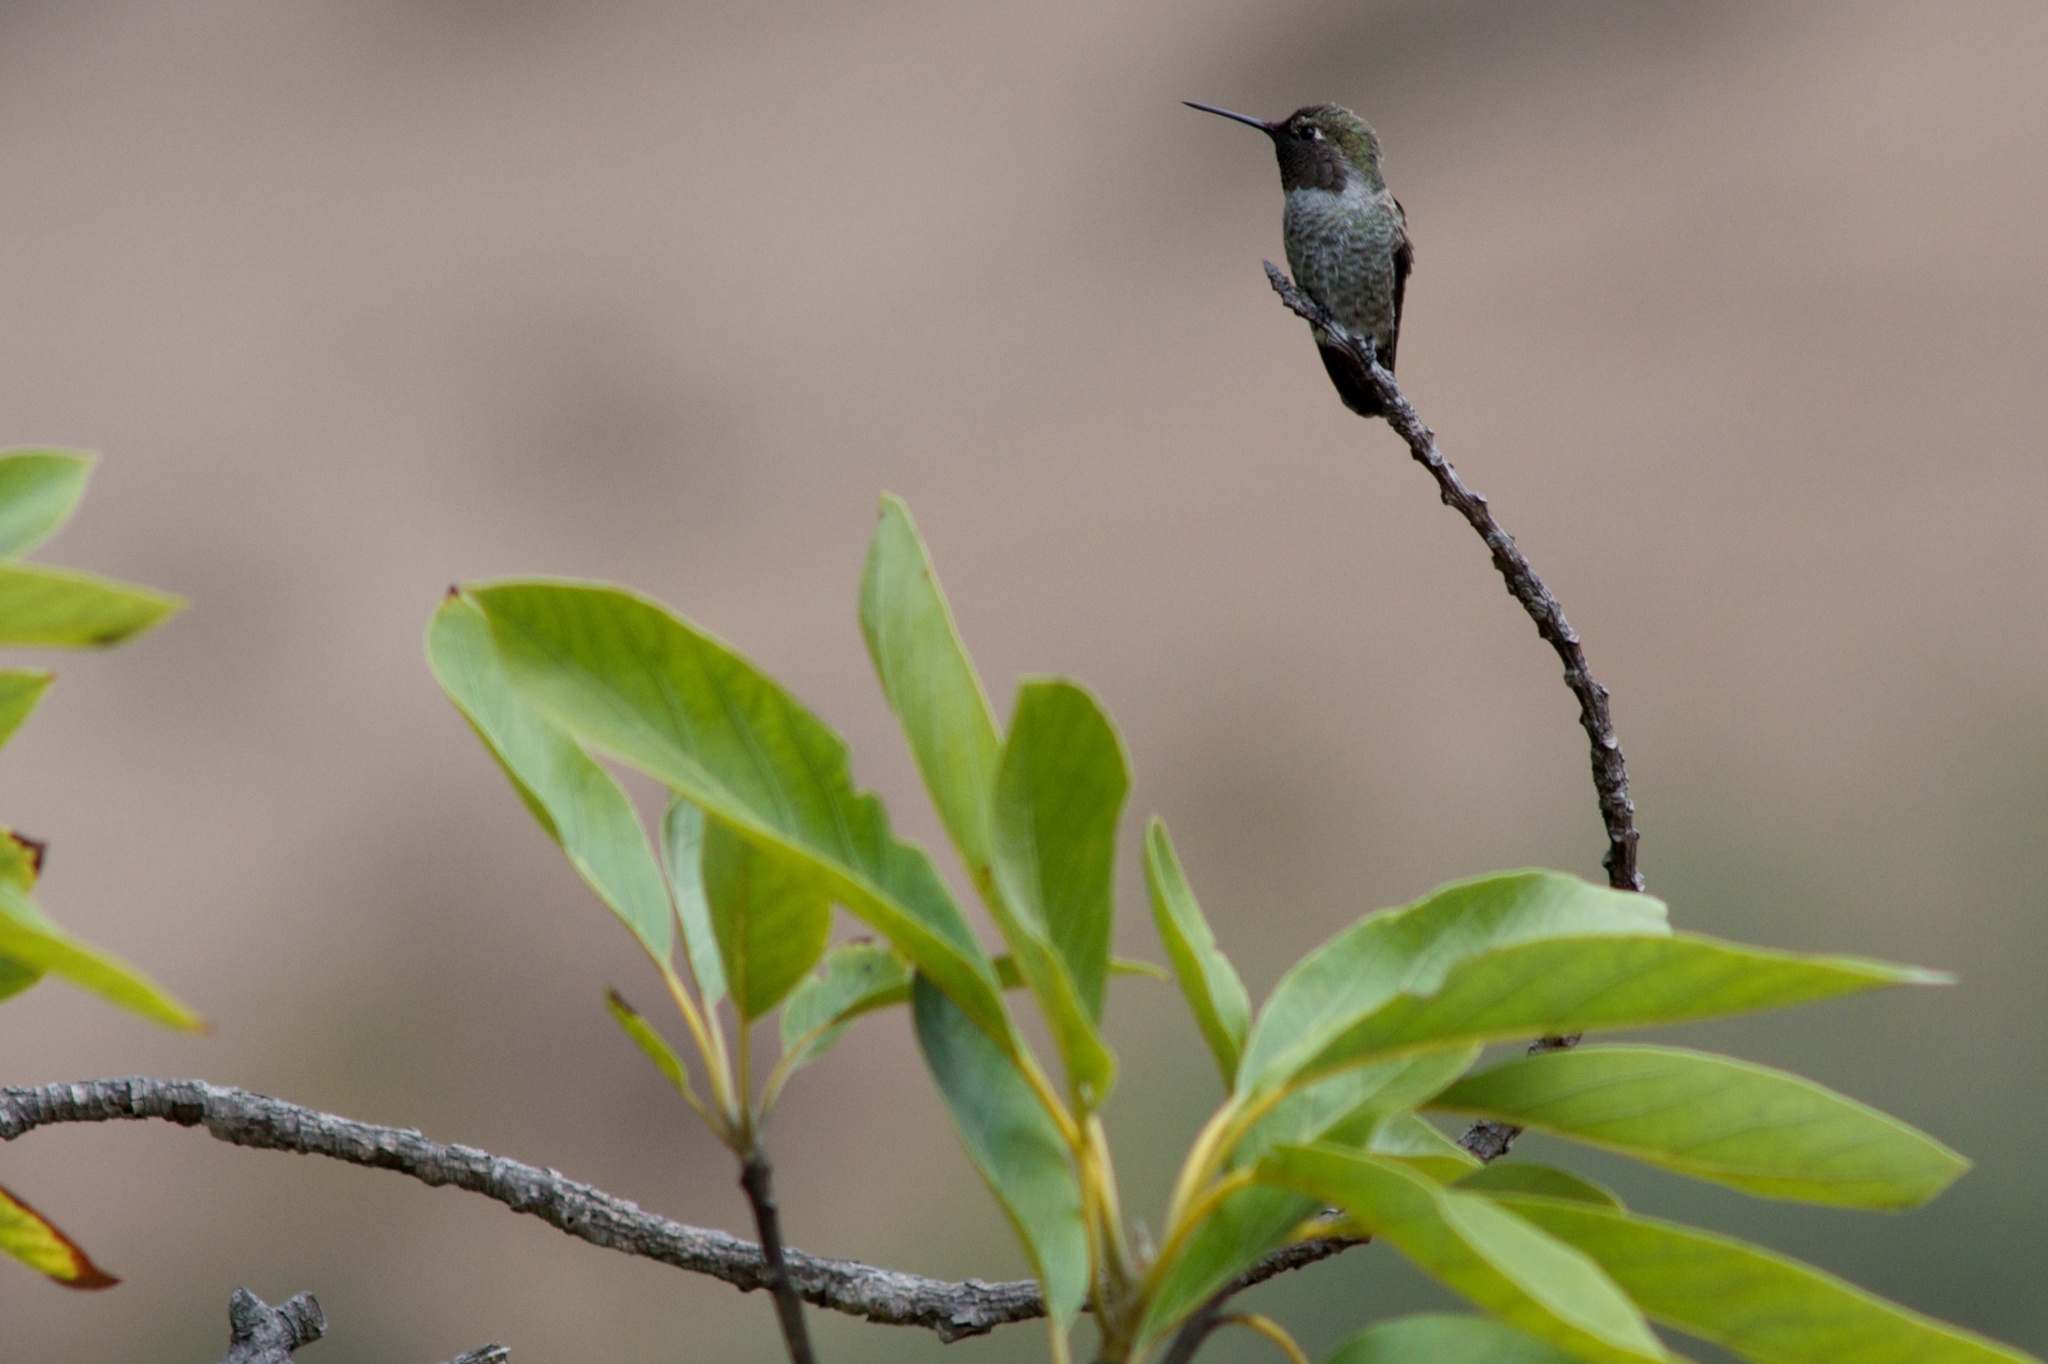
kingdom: Animalia
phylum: Chordata
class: Aves
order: Apodiformes
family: Trochilidae
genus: Calypte
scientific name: Calypte anna
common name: Anna's hummingbird
